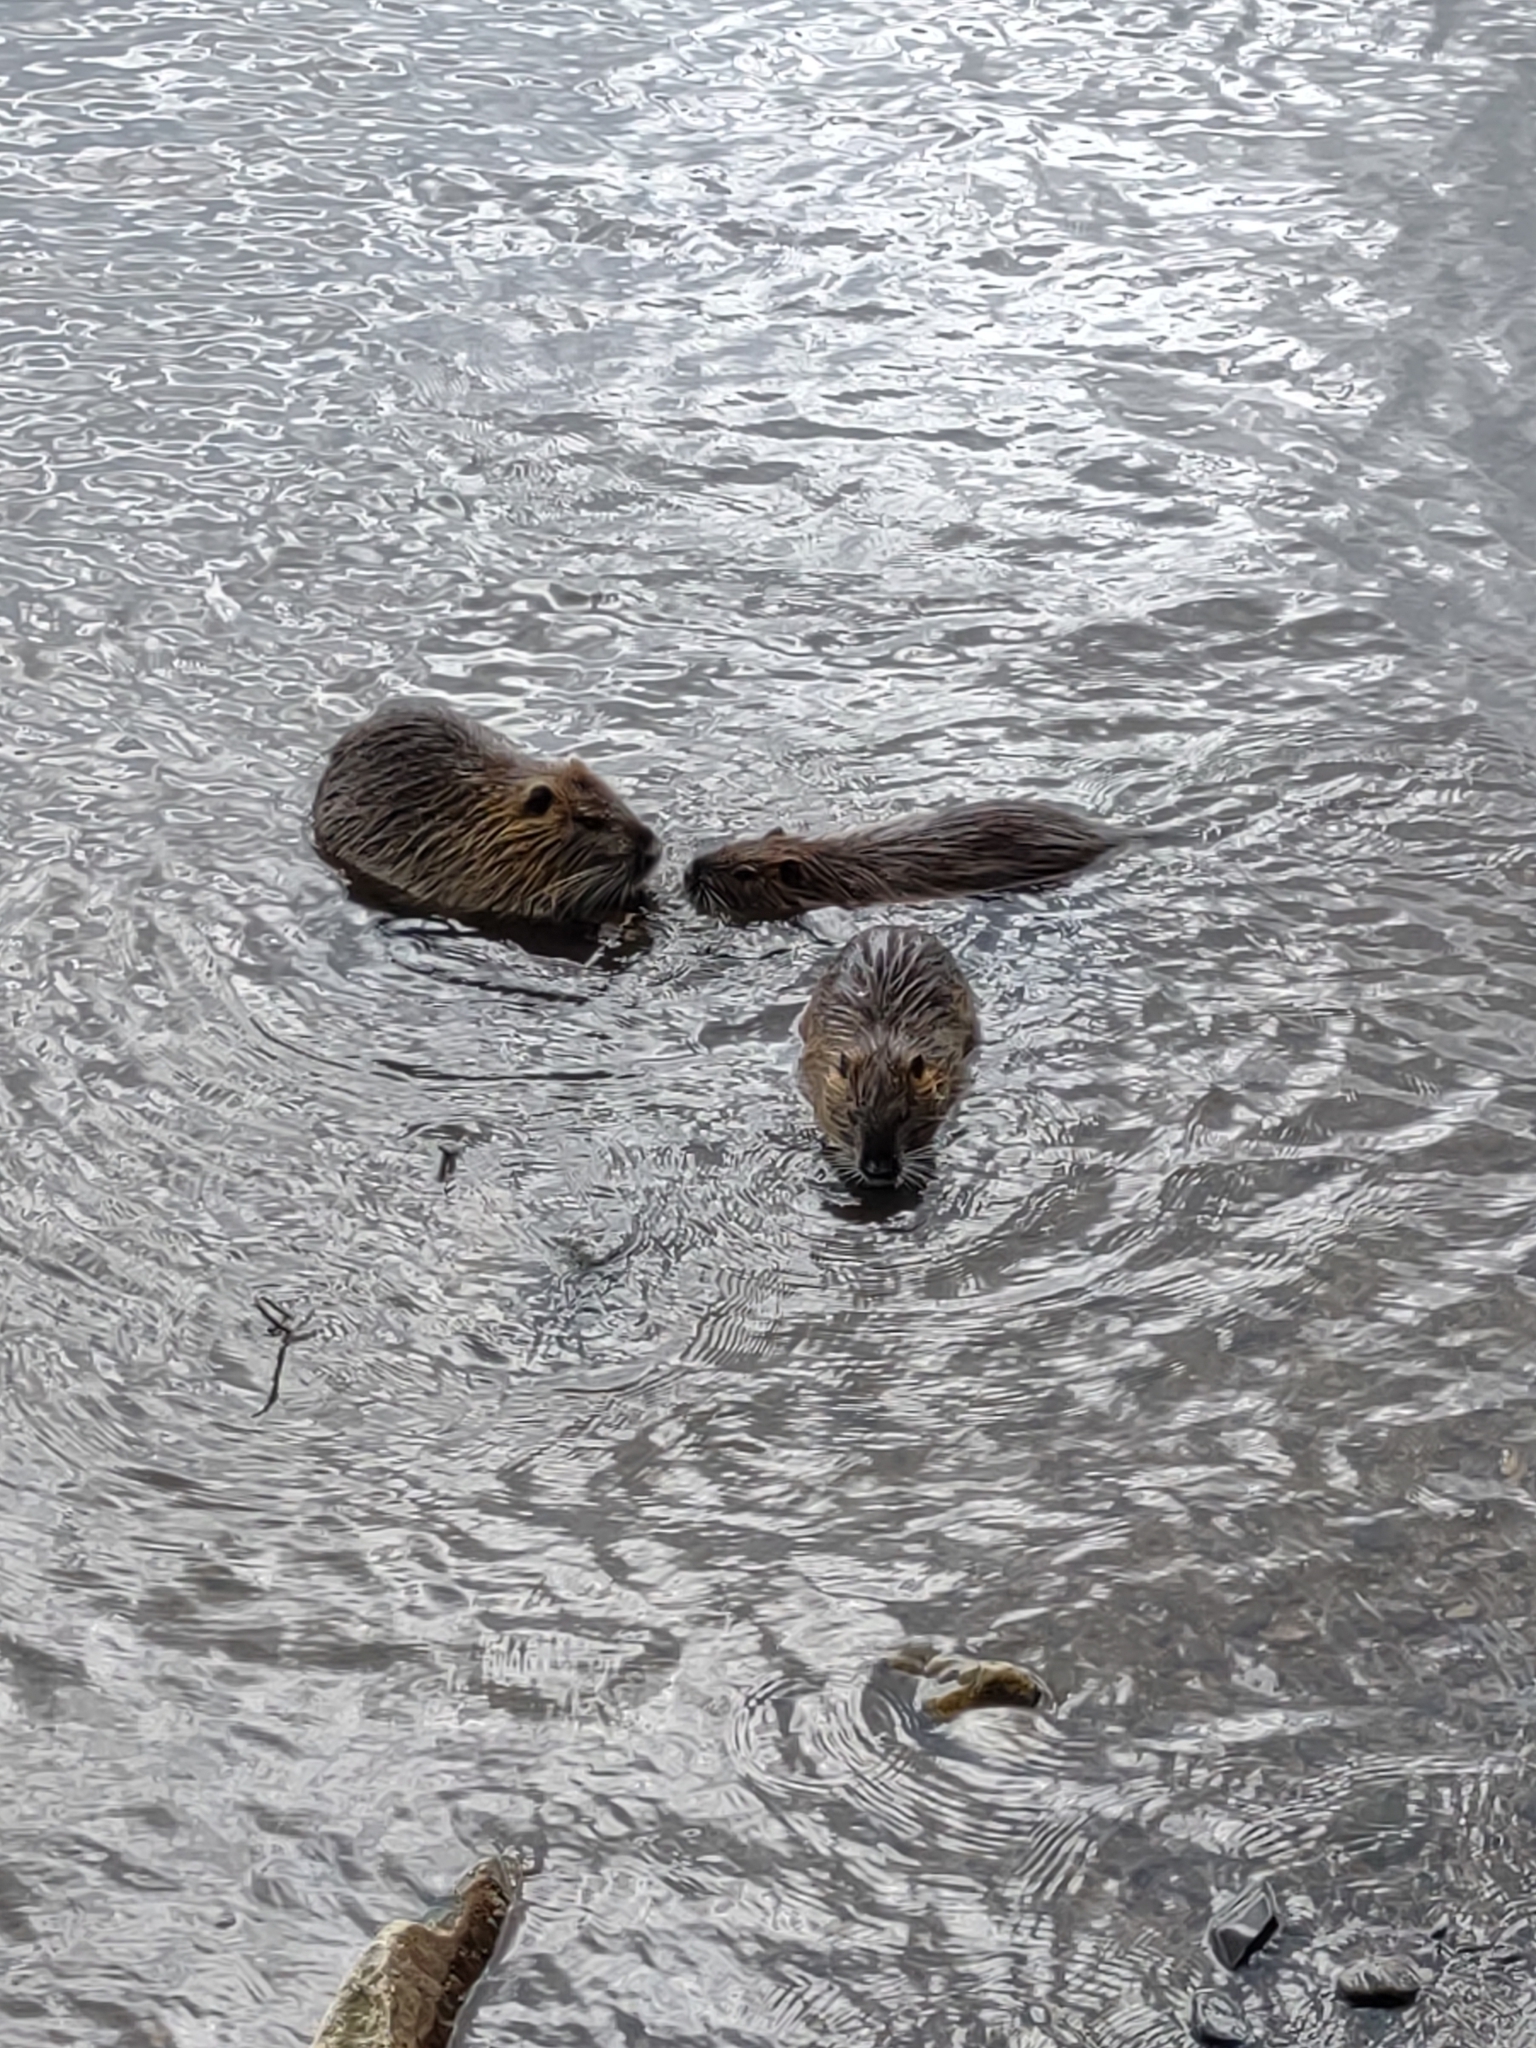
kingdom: Animalia
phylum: Chordata
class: Mammalia
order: Rodentia
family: Myocastoridae
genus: Myocastor
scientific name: Myocastor coypus
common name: Coypu
